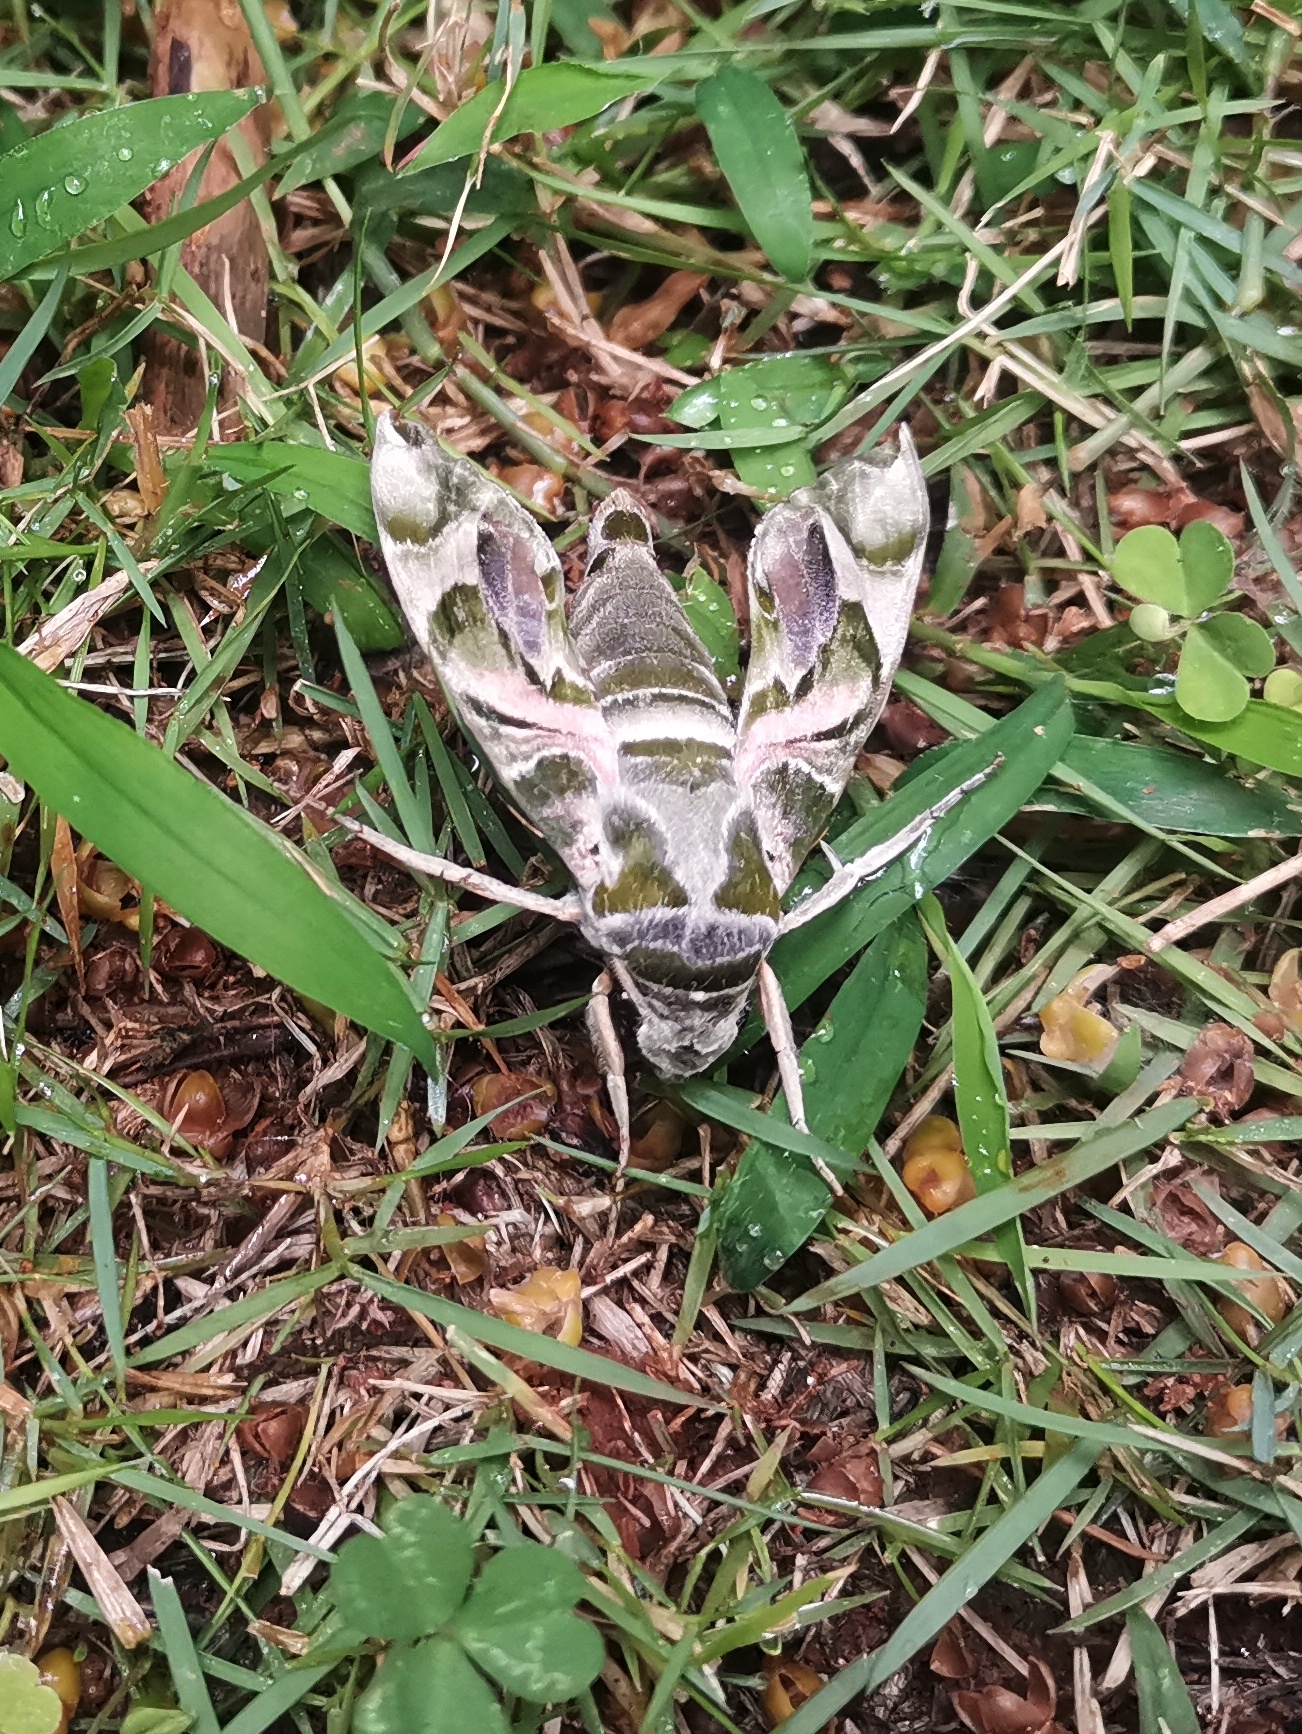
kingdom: Animalia
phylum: Arthropoda
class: Insecta
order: Lepidoptera
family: Sphingidae
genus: Daphnis
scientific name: Daphnis nerii
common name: Oleander hawk-moth
